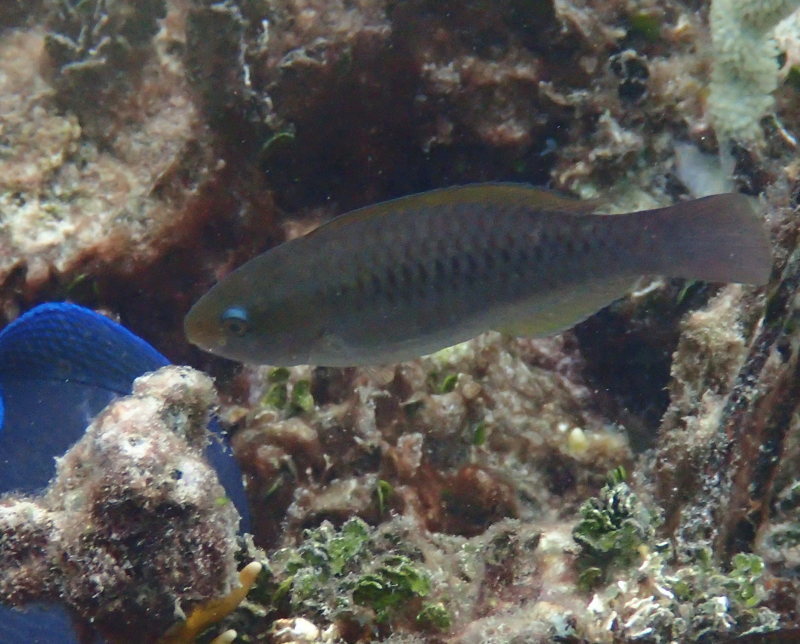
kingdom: Animalia
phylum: Chordata
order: Perciformes
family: Scaridae
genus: Scarus
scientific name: Scarus
